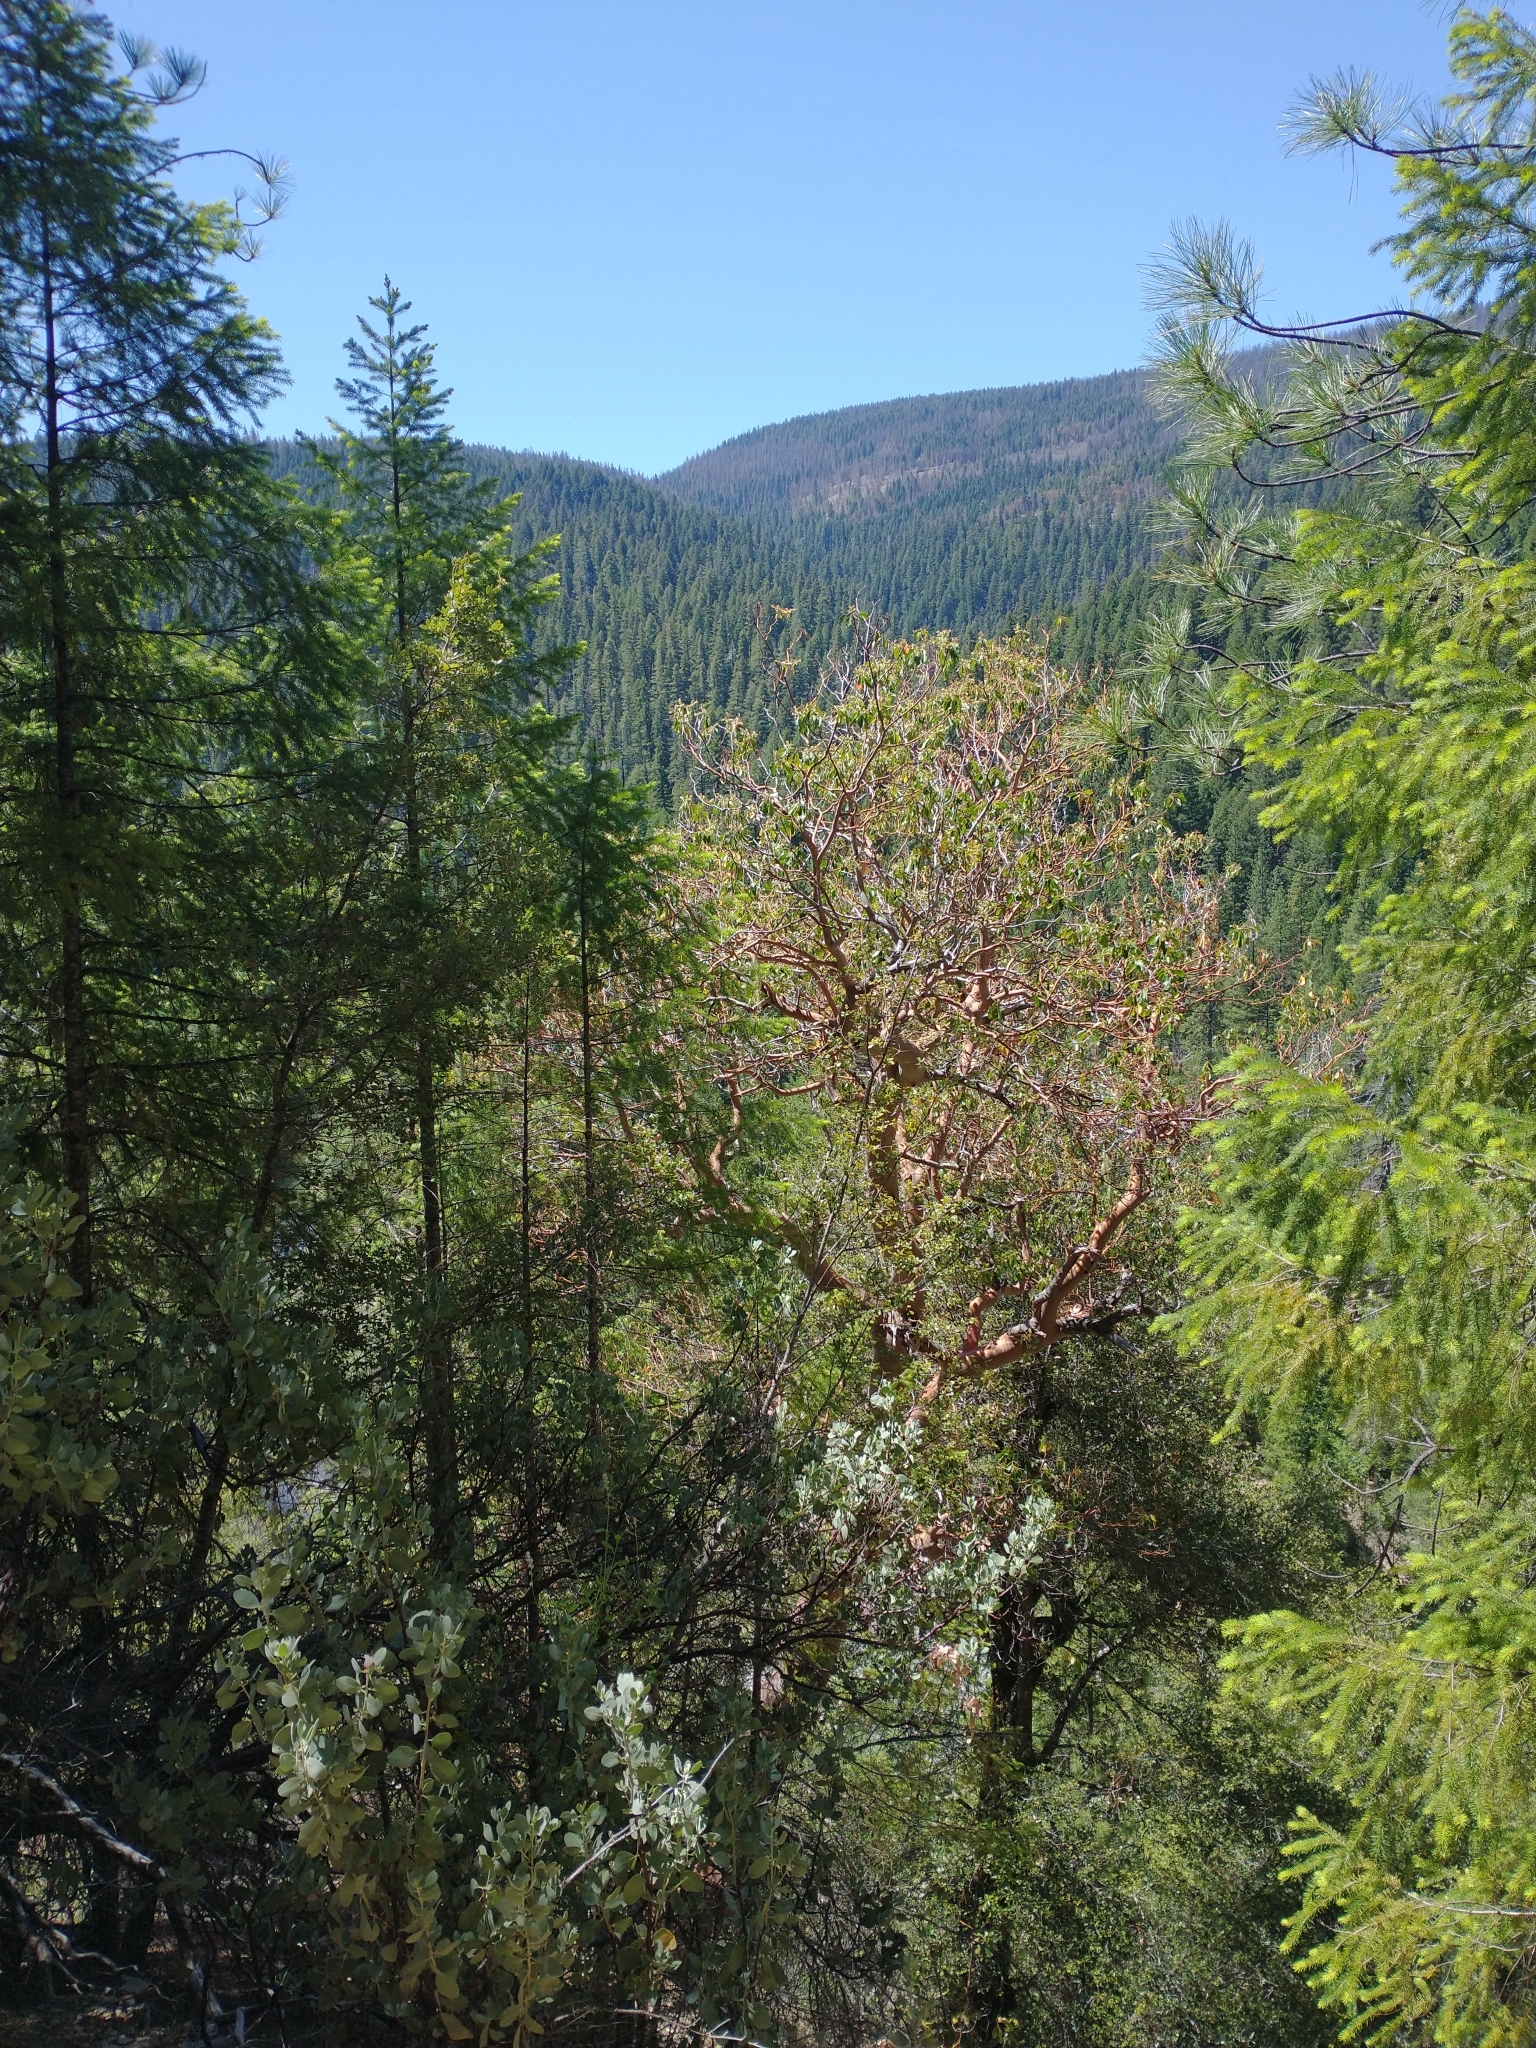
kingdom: Plantae
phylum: Tracheophyta
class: Magnoliopsida
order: Ericales
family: Ericaceae
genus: Arbutus
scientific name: Arbutus menziesii
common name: Pacific madrone
